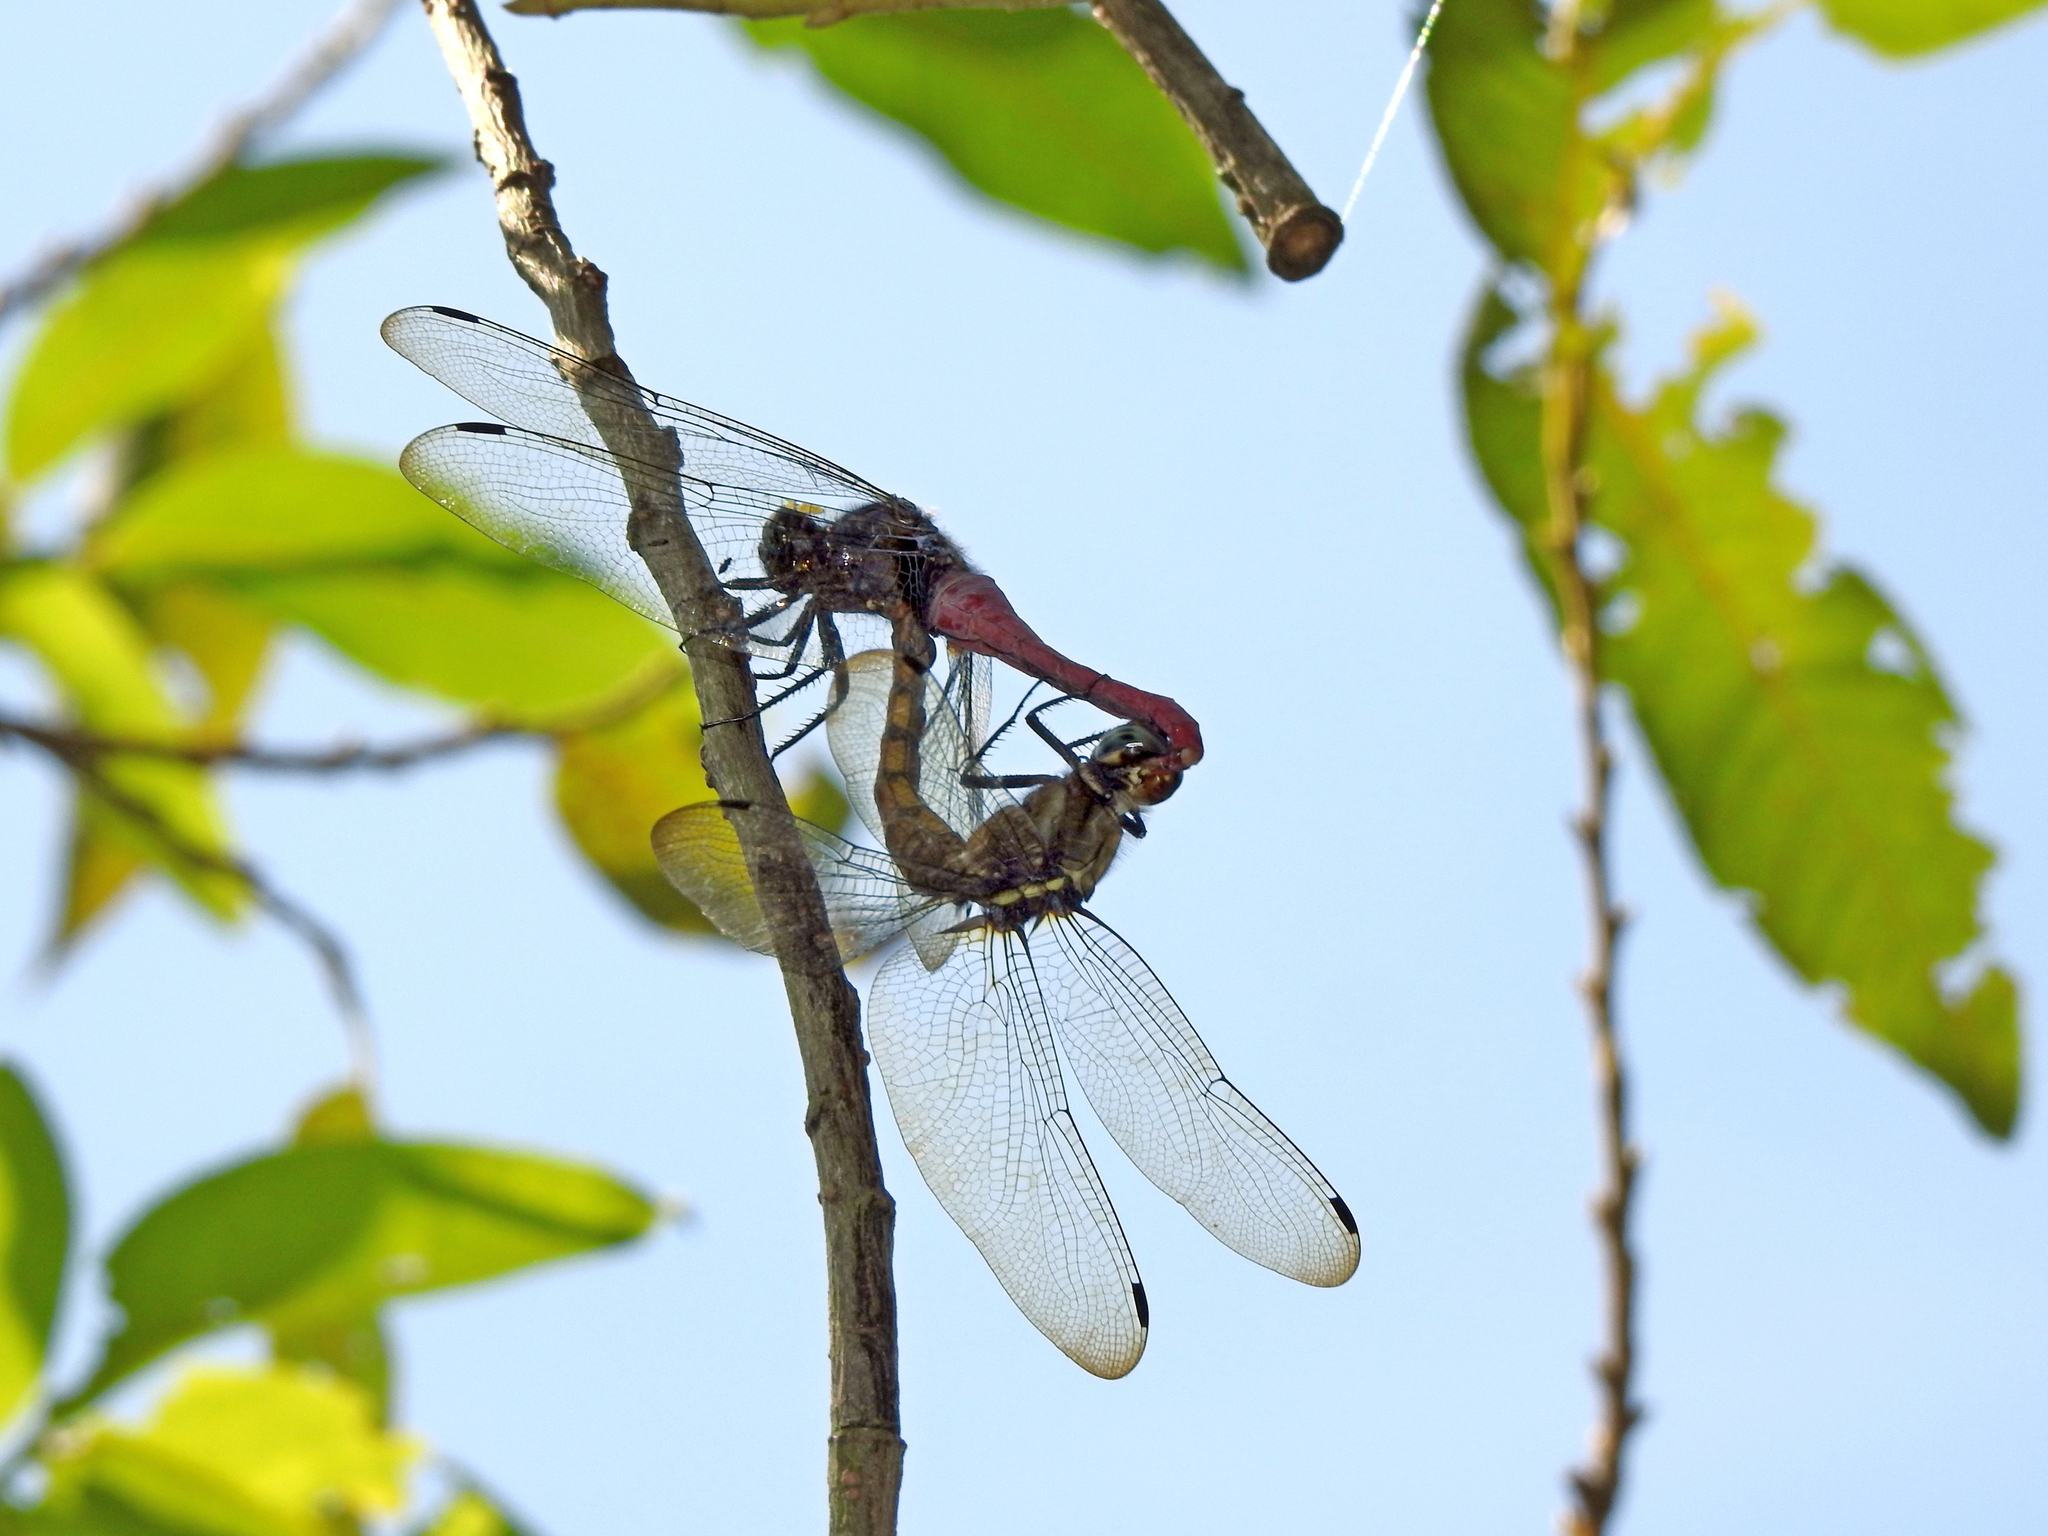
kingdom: Animalia
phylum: Arthropoda
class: Insecta
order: Odonata
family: Libellulidae
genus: Orthetrum
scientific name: Orthetrum pruinosum
